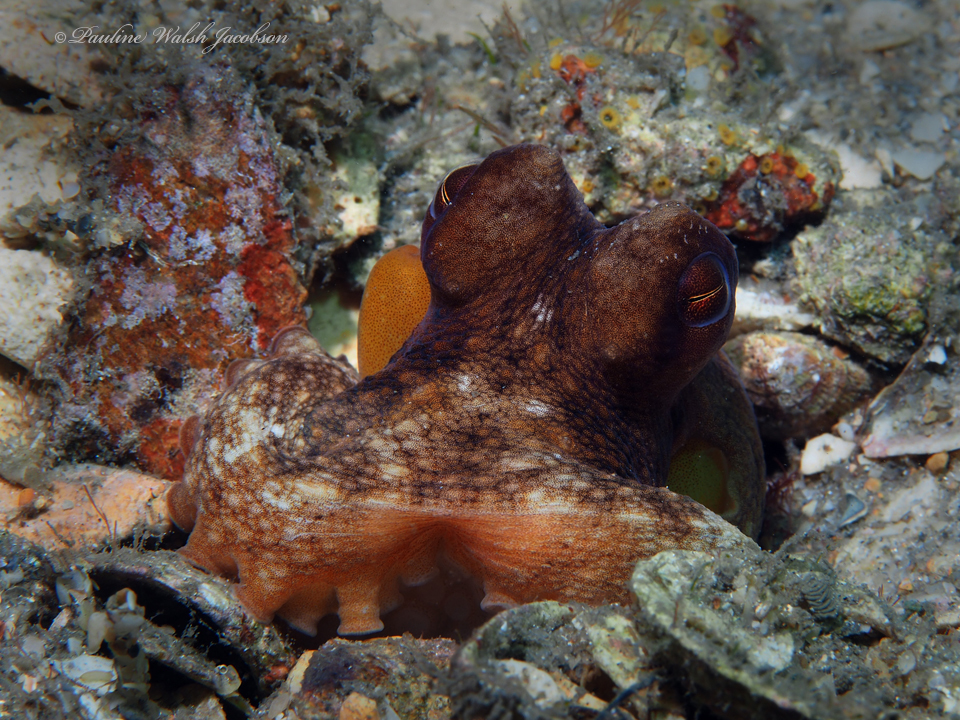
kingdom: Animalia
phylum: Mollusca
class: Cephalopoda
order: Octopoda
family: Octopodidae
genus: Octopus
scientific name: Octopus americanus
